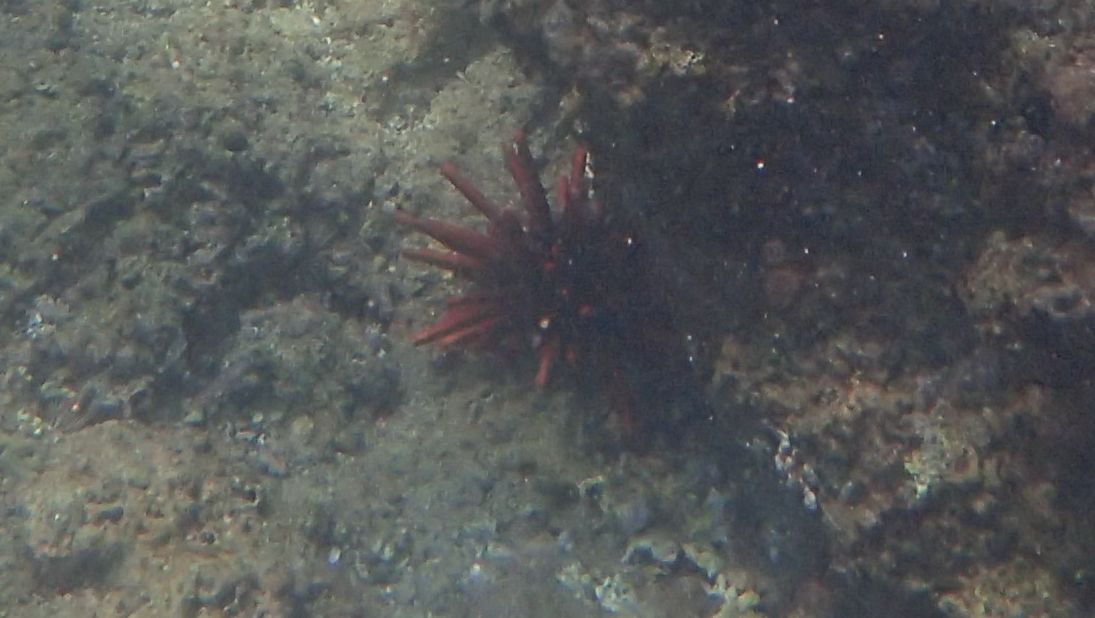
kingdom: Animalia
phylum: Echinodermata
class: Echinoidea
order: Camarodonta
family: Echinometridae
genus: Heterocentrotus
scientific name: Heterocentrotus mamillatus
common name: Slate pencil urchin
